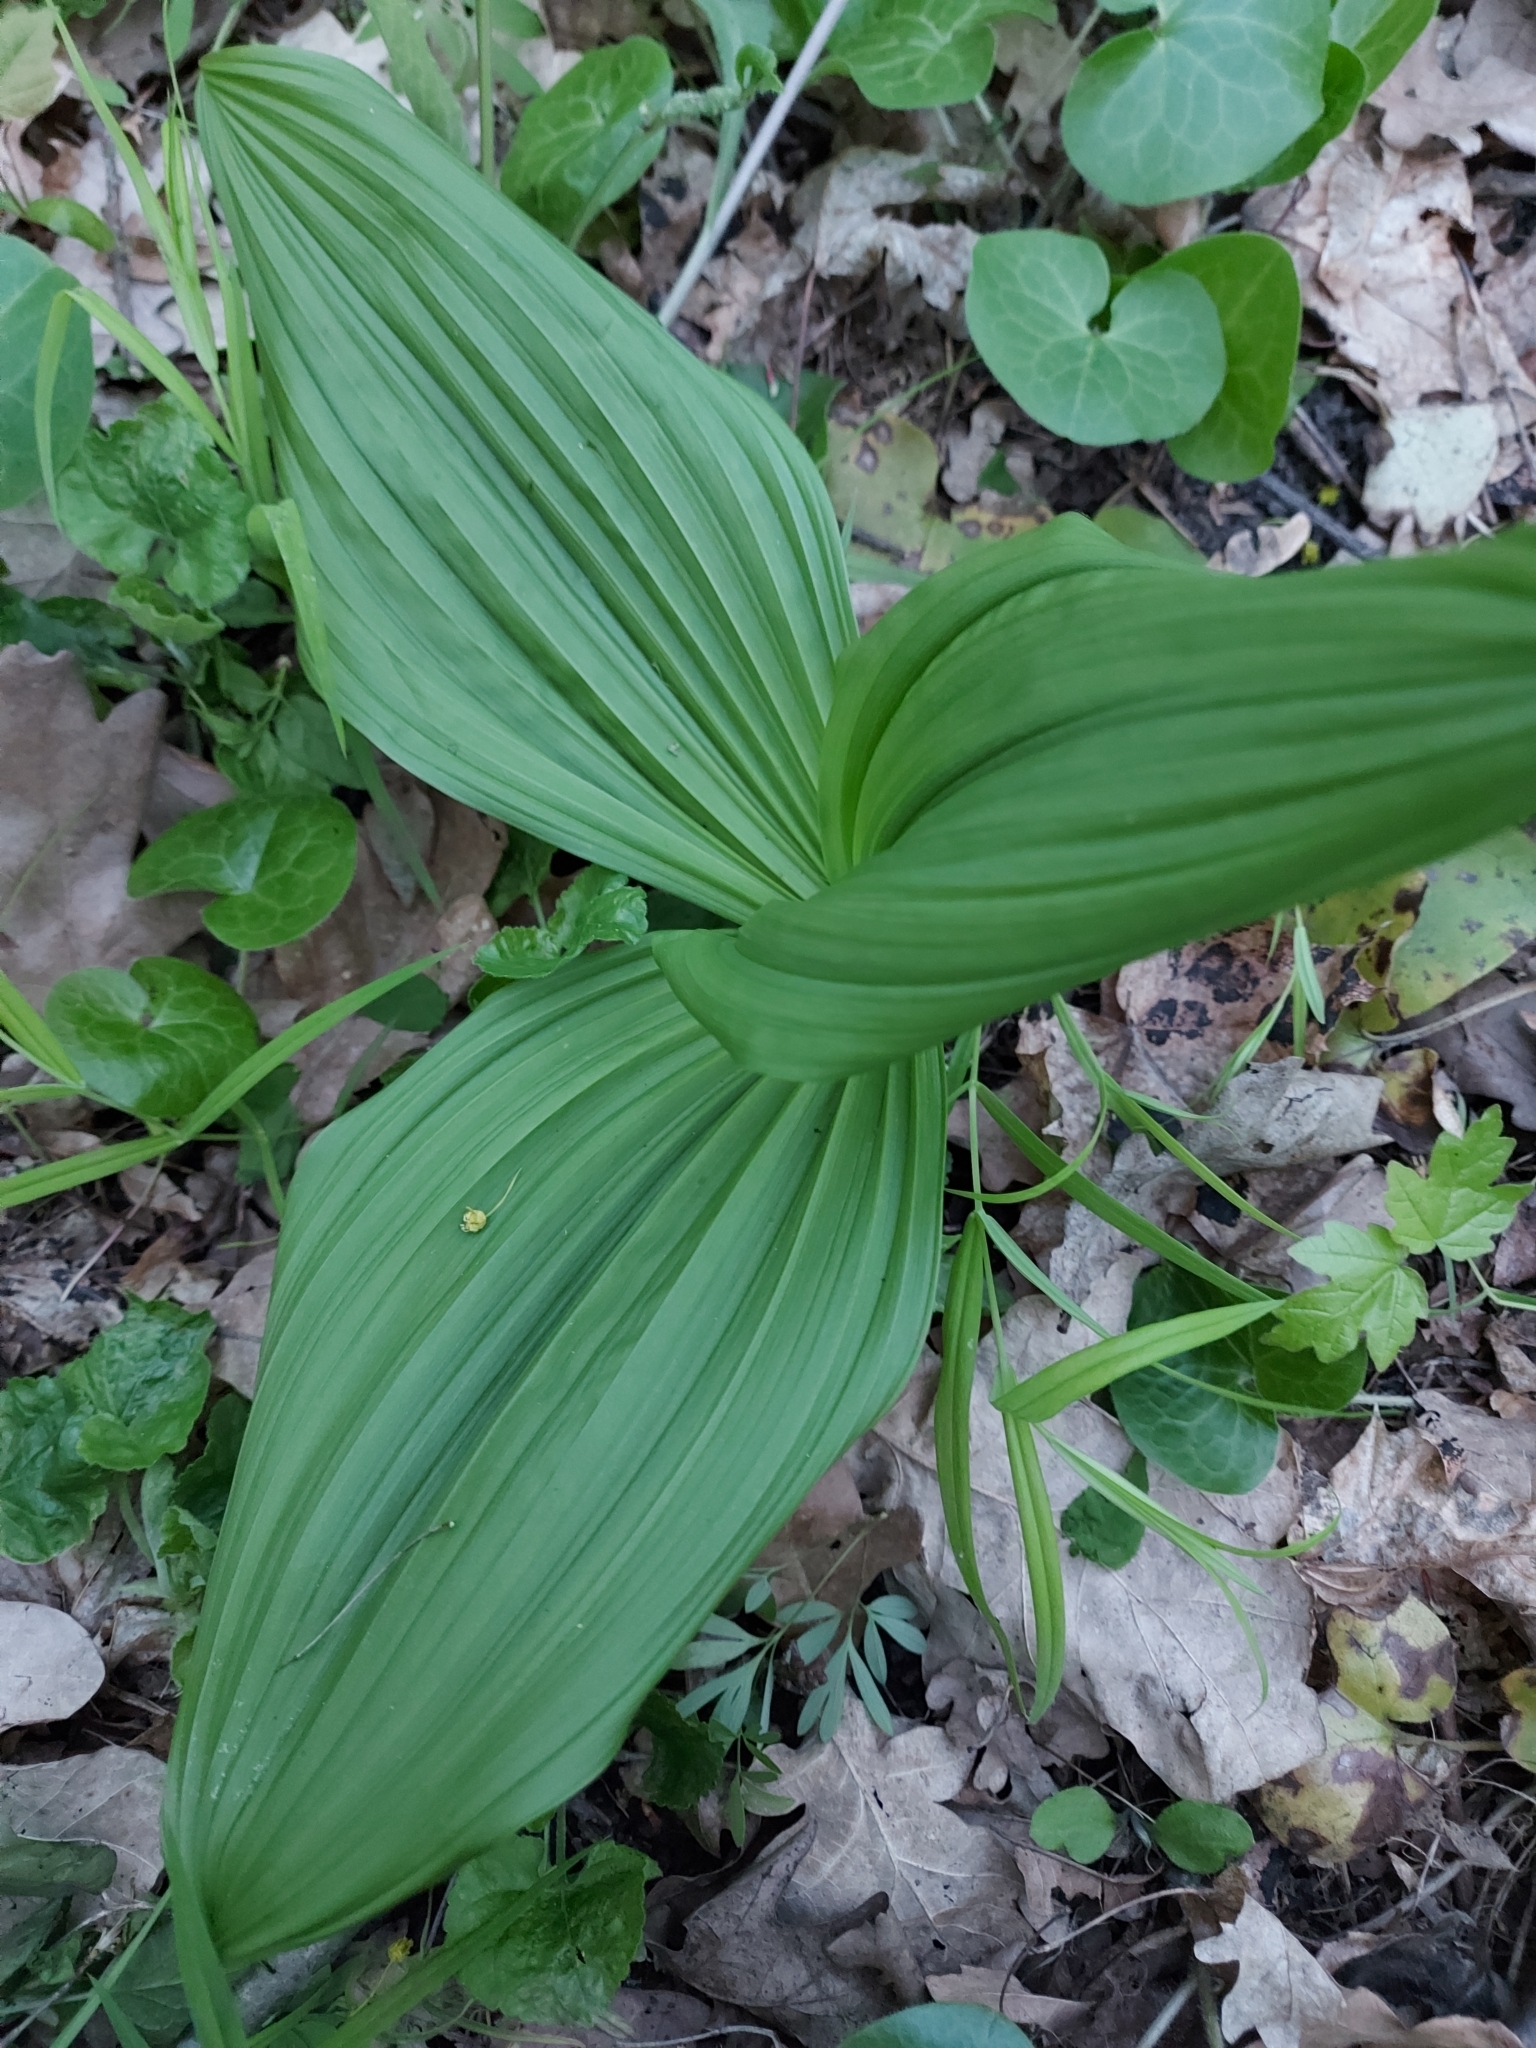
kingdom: Plantae
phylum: Tracheophyta
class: Liliopsida
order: Liliales
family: Melanthiaceae
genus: Veratrum
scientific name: Veratrum lobelianum
